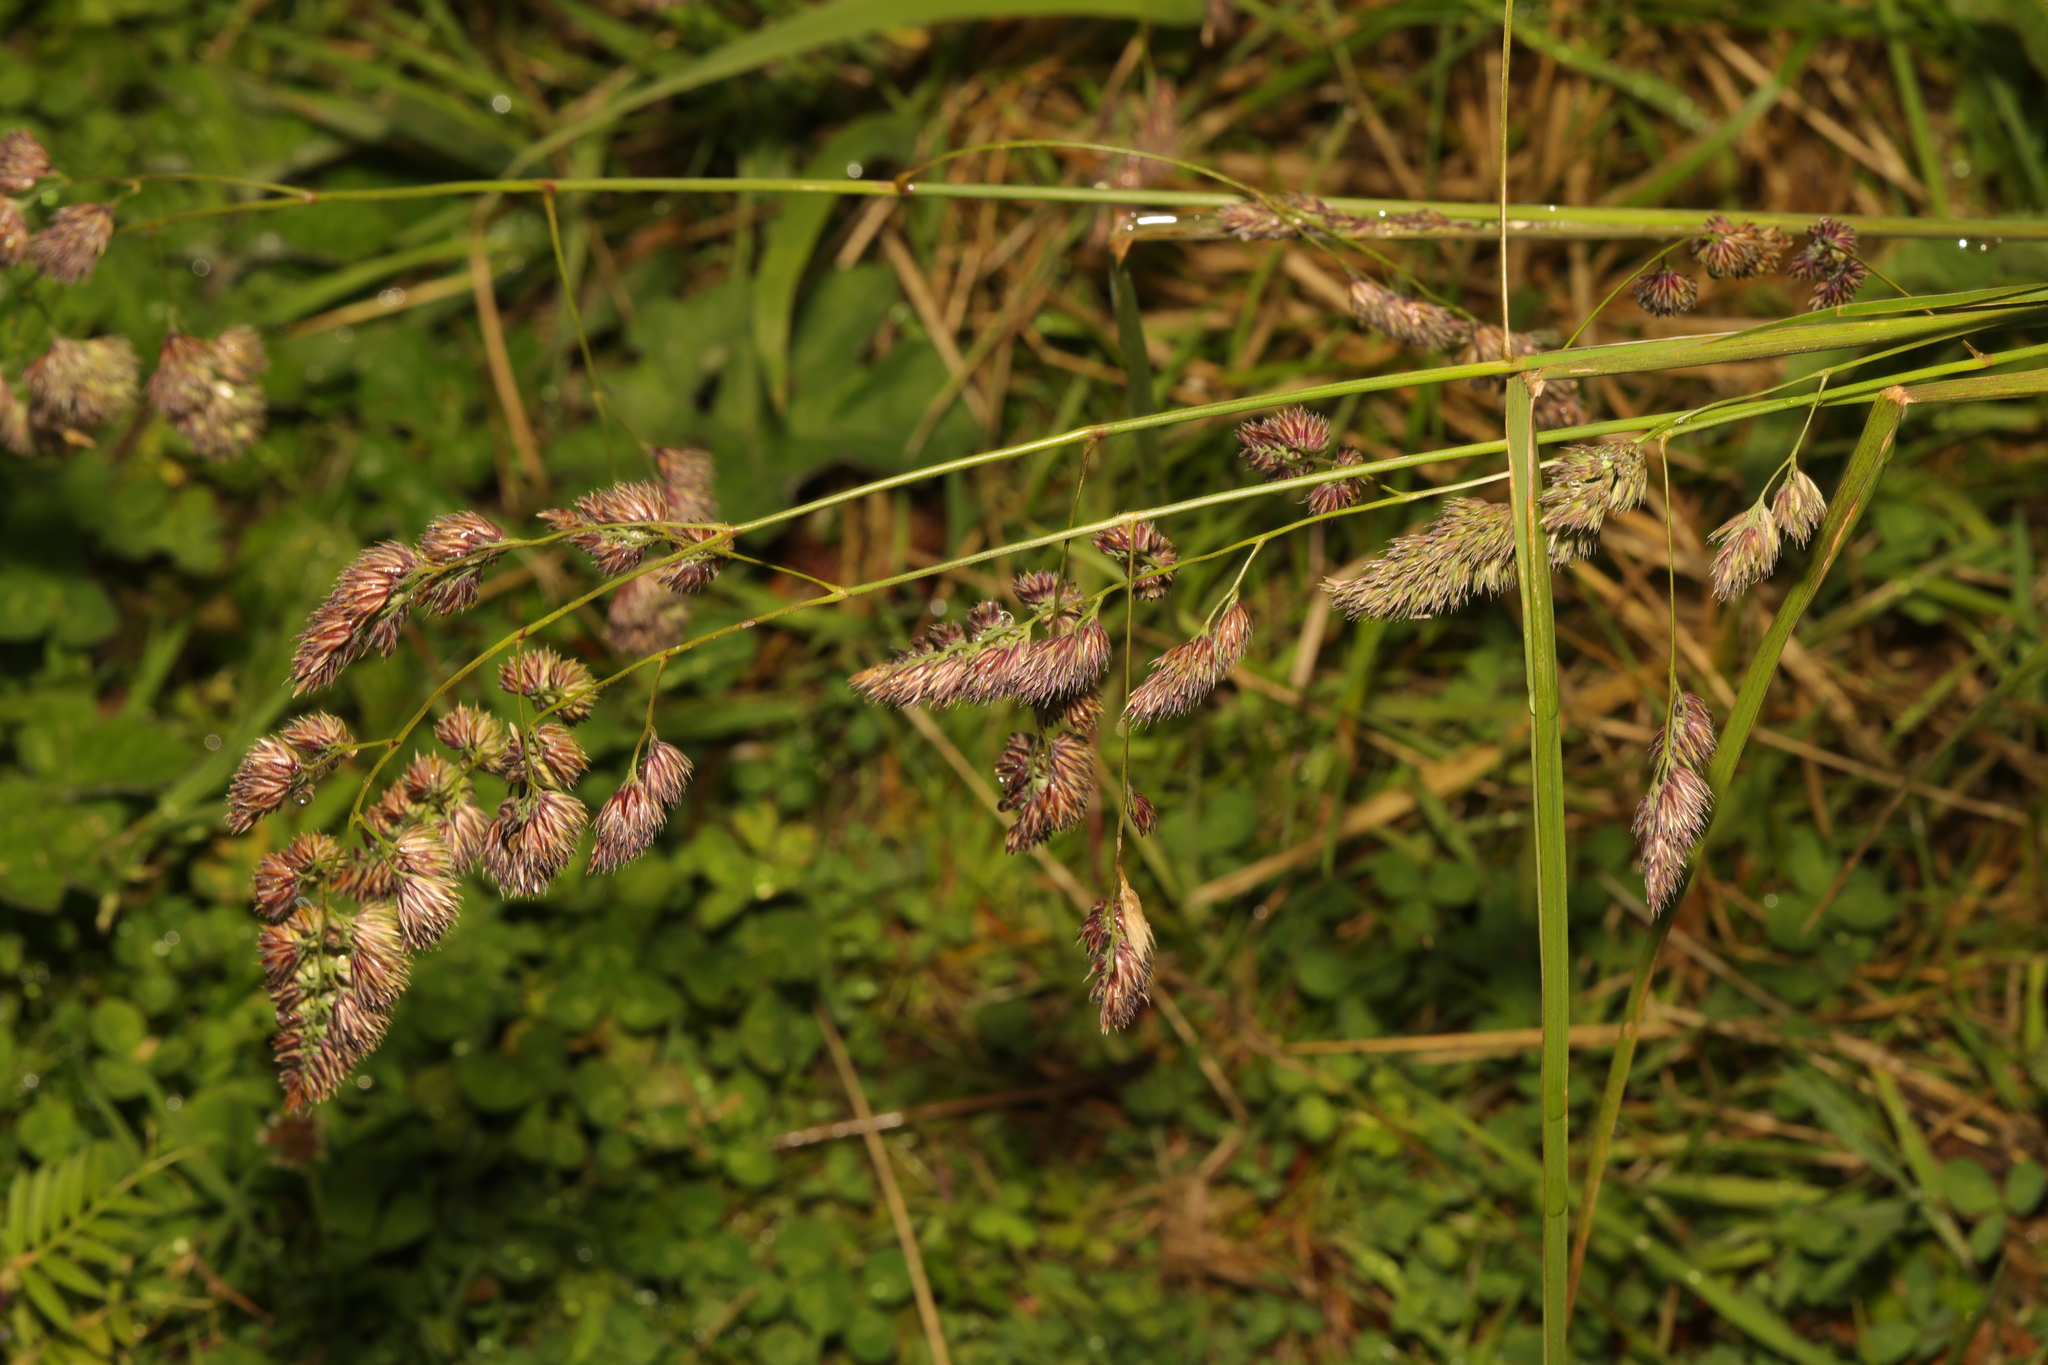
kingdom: Plantae
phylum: Tracheophyta
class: Liliopsida
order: Poales
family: Poaceae
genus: Dactylis
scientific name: Dactylis glomerata
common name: Orchardgrass
